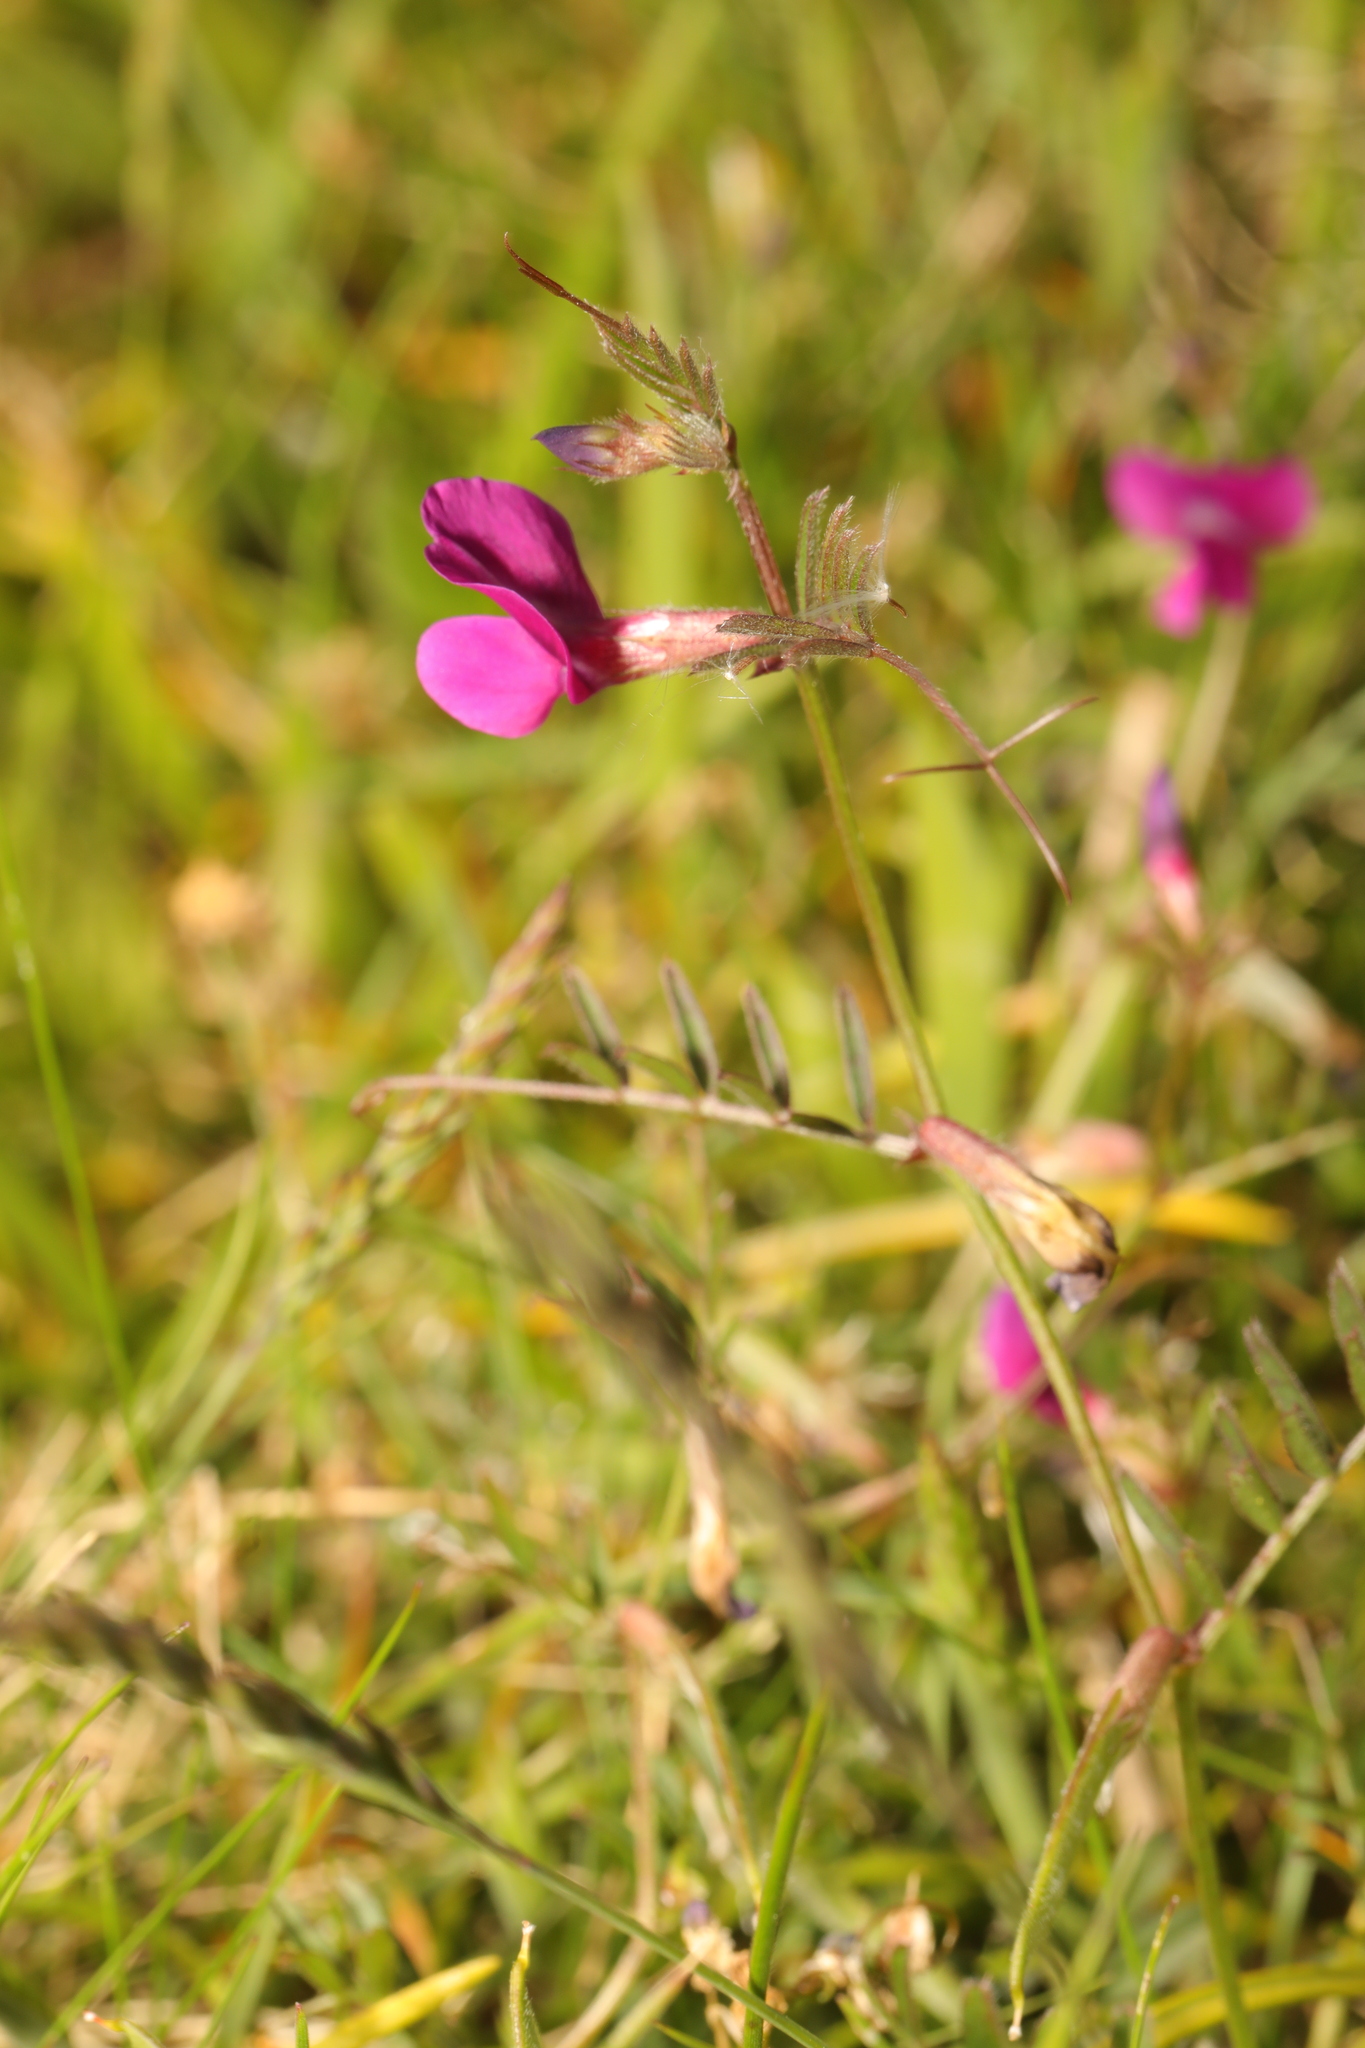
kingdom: Plantae
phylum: Tracheophyta
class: Magnoliopsida
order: Fabales
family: Fabaceae
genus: Vicia
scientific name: Vicia sativa
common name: Garden vetch
